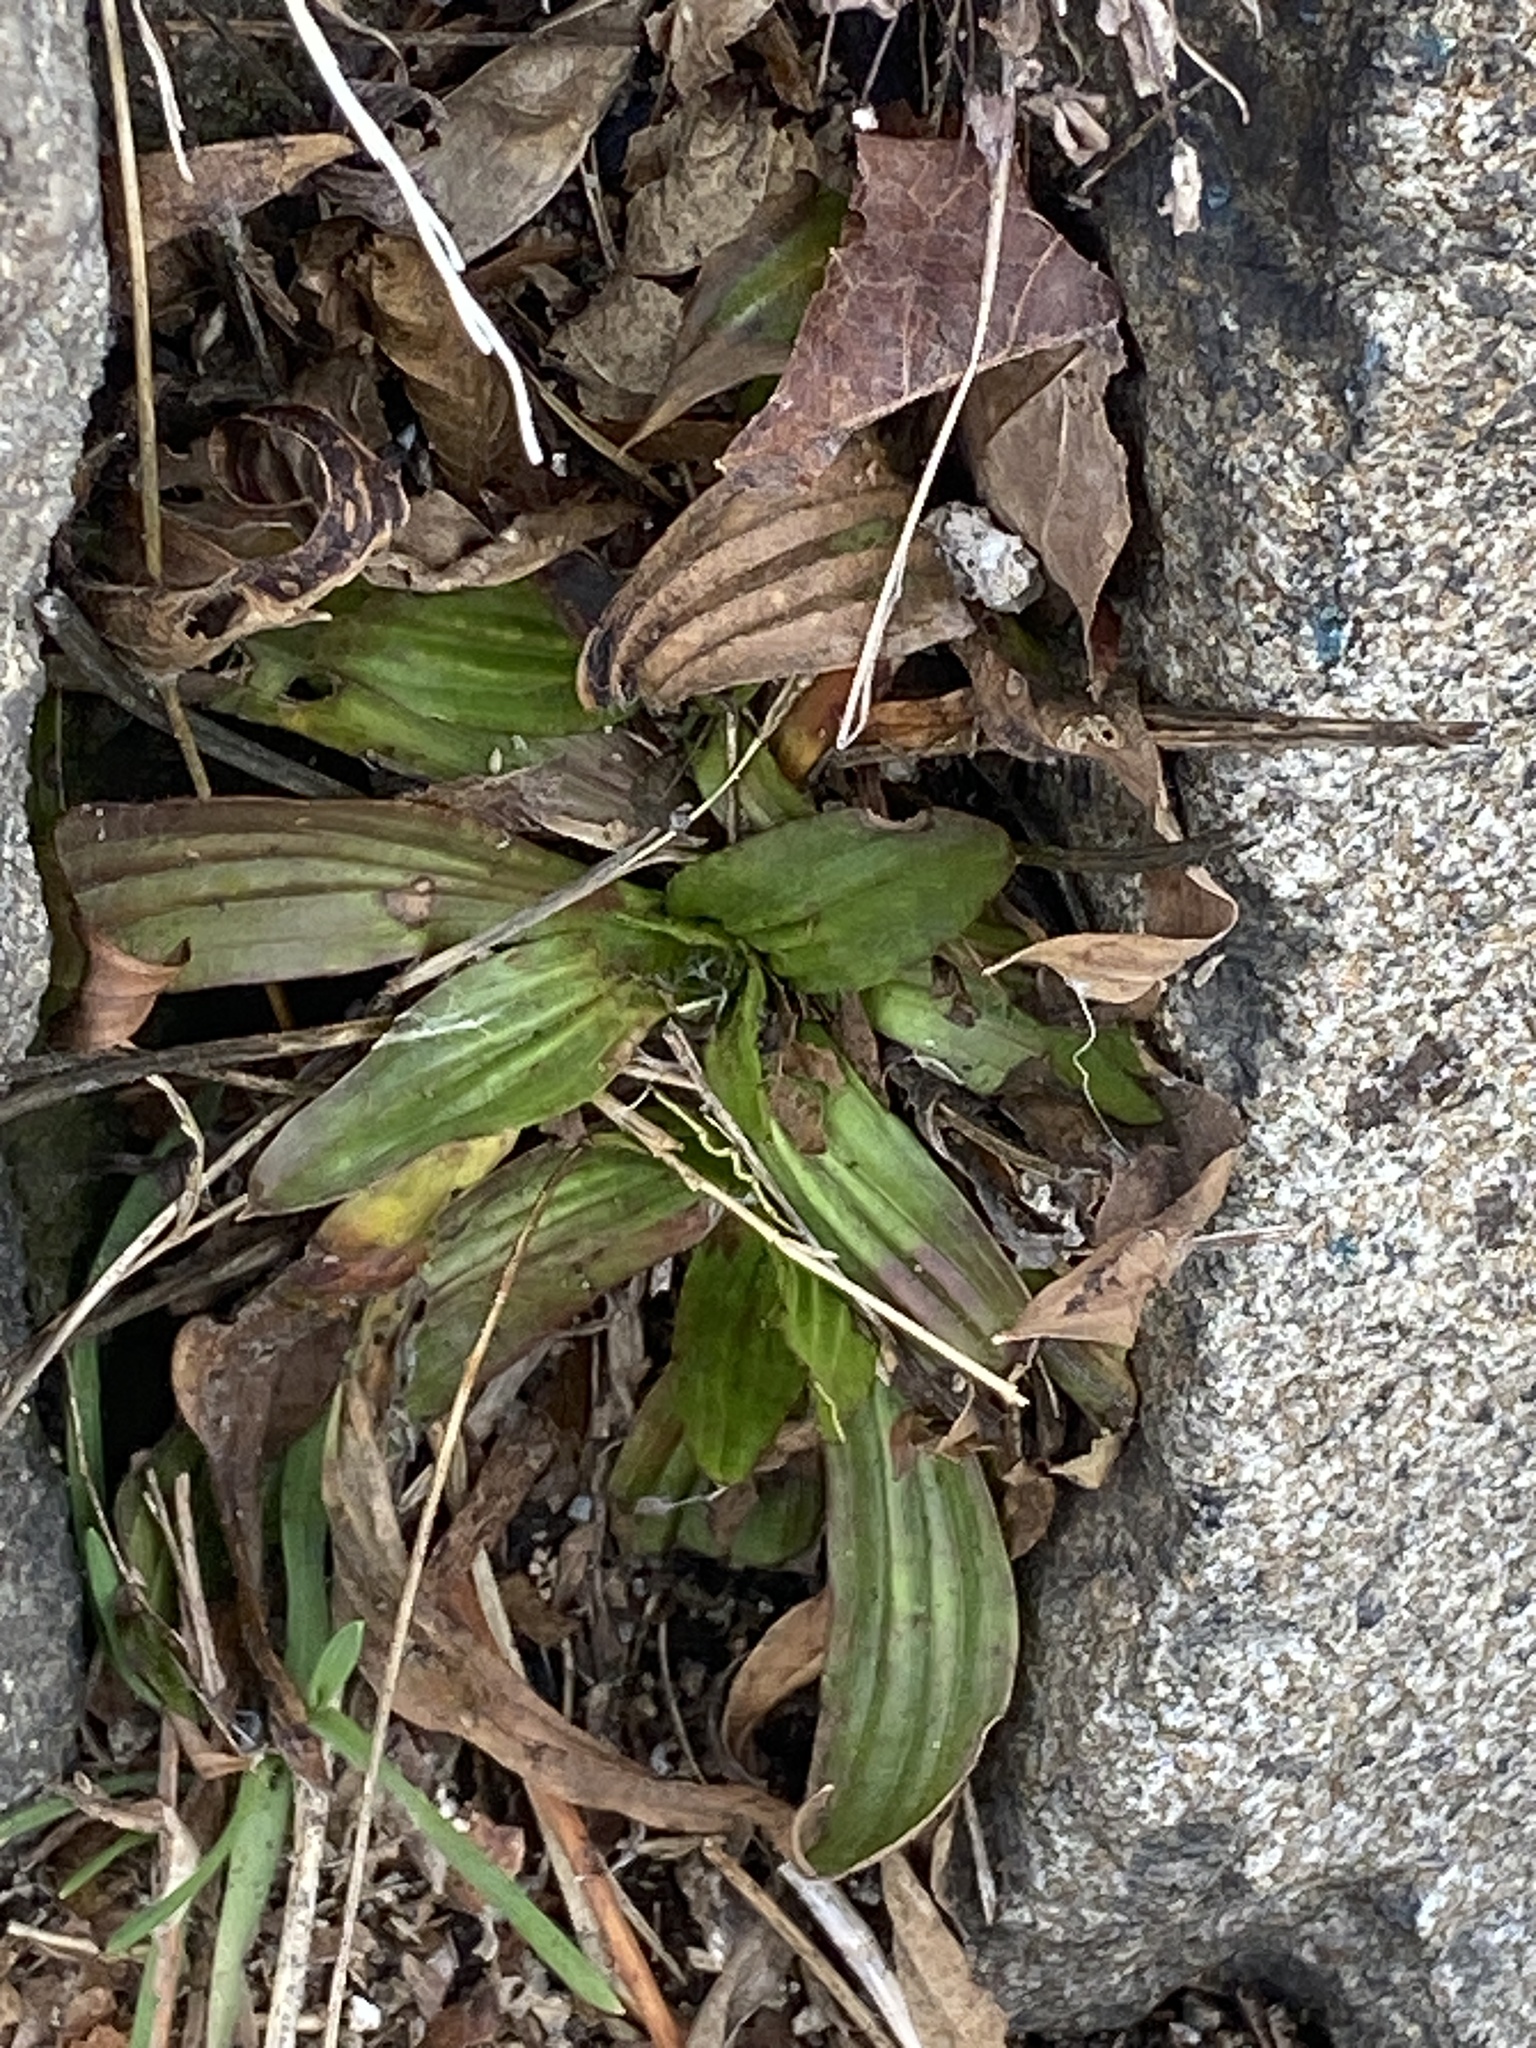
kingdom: Plantae
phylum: Tracheophyta
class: Magnoliopsida
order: Lamiales
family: Plantaginaceae
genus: Plantago
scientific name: Plantago lanceolata
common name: Ribwort plantain
